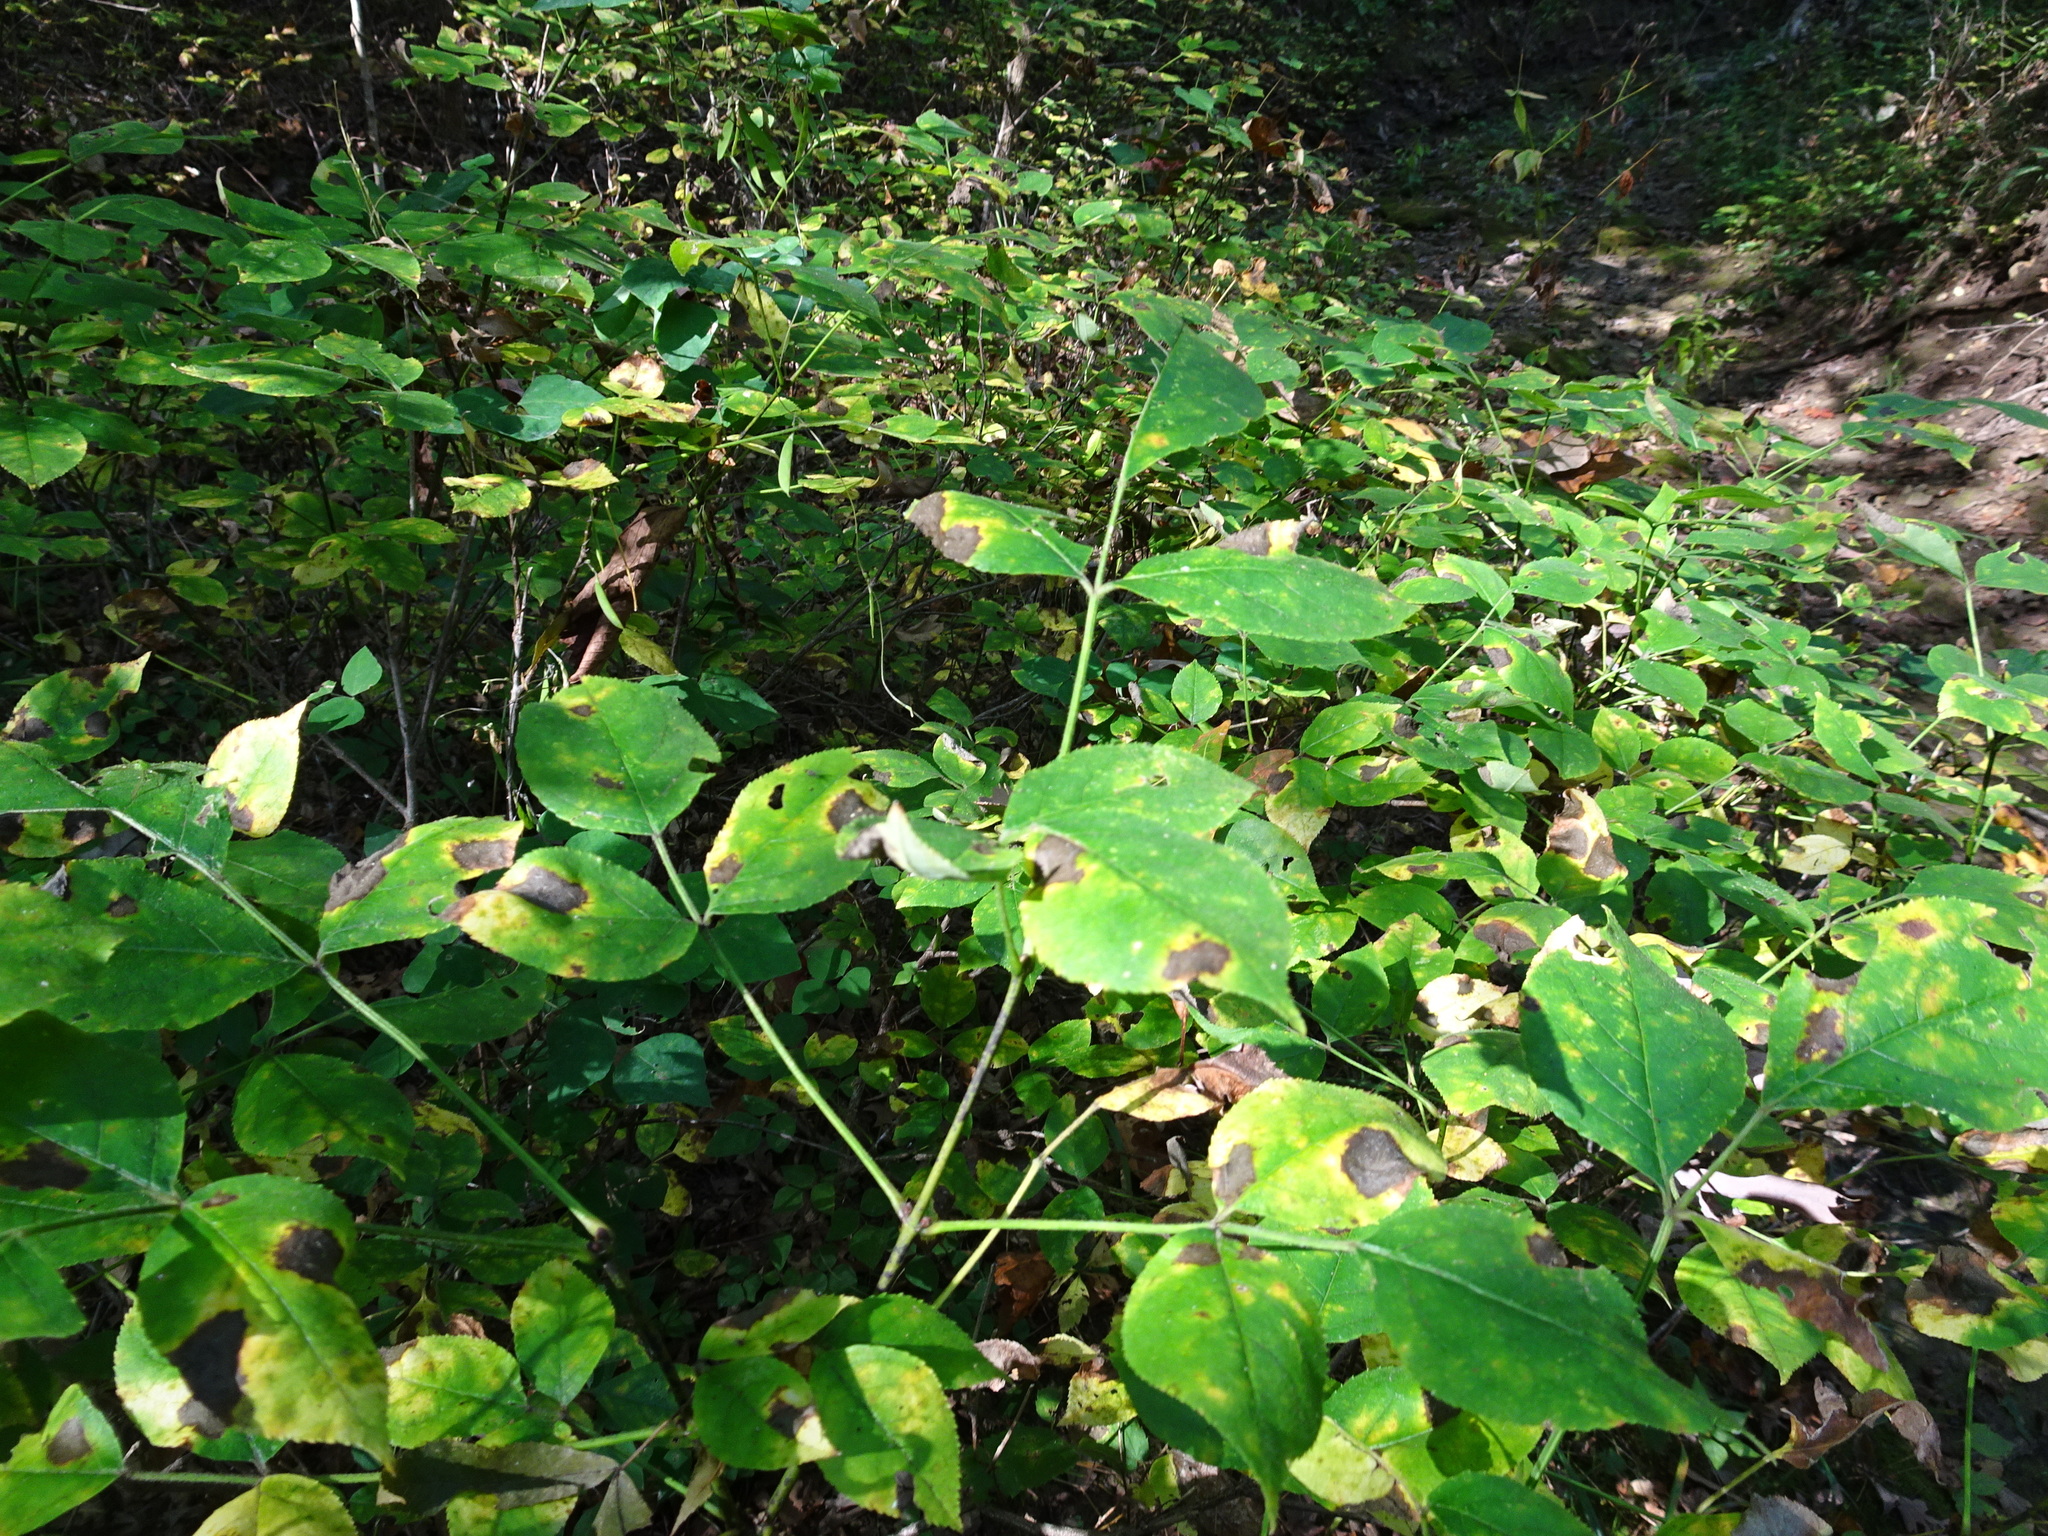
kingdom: Plantae
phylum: Tracheophyta
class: Magnoliopsida
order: Crossosomatales
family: Staphyleaceae
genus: Staphylea
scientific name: Staphylea trifolia
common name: American bladdernut
